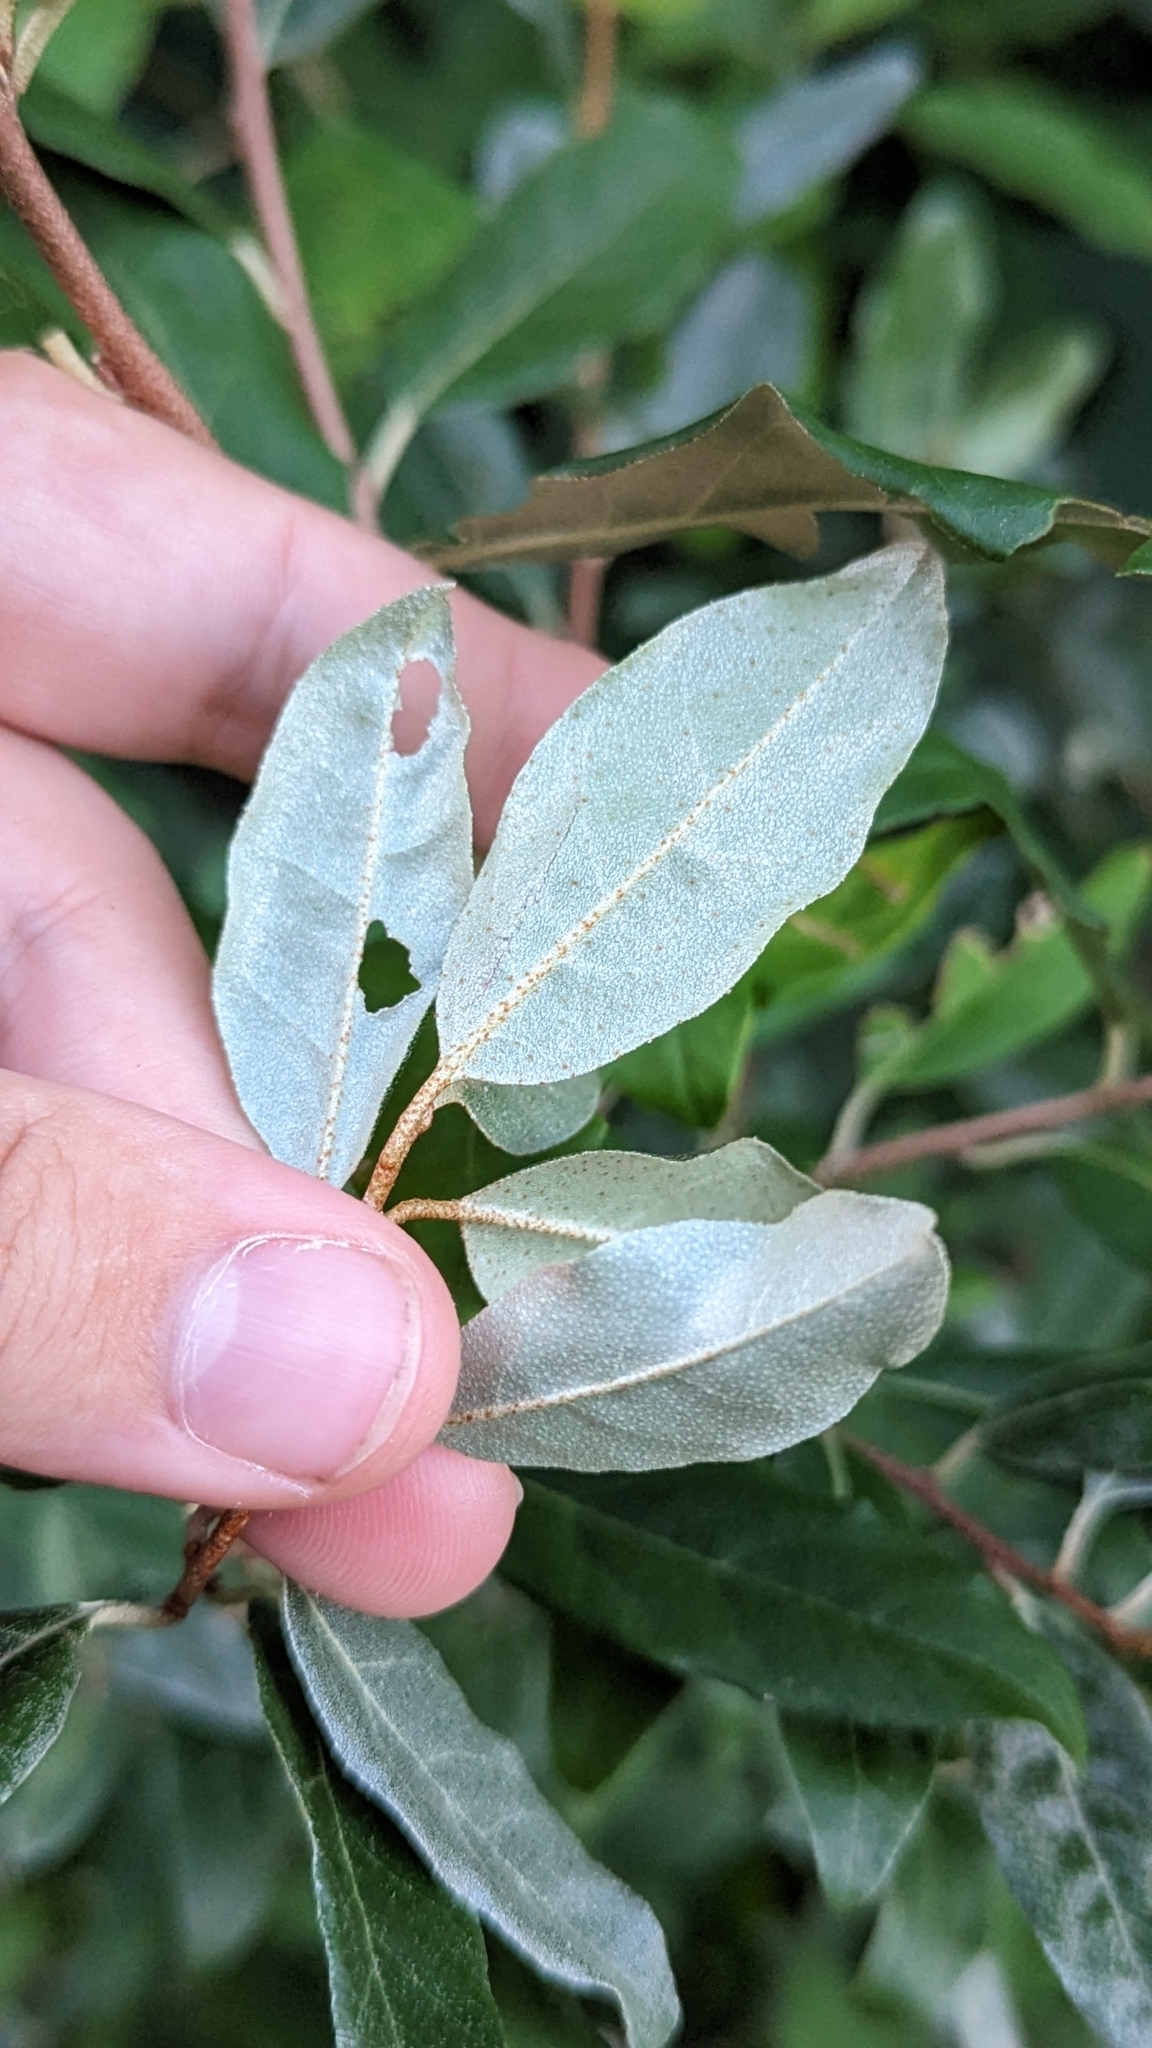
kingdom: Plantae
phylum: Tracheophyta
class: Magnoliopsida
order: Rosales
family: Elaeagnaceae
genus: Elaeagnus
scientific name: Elaeagnus umbellata
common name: Autumn olive
